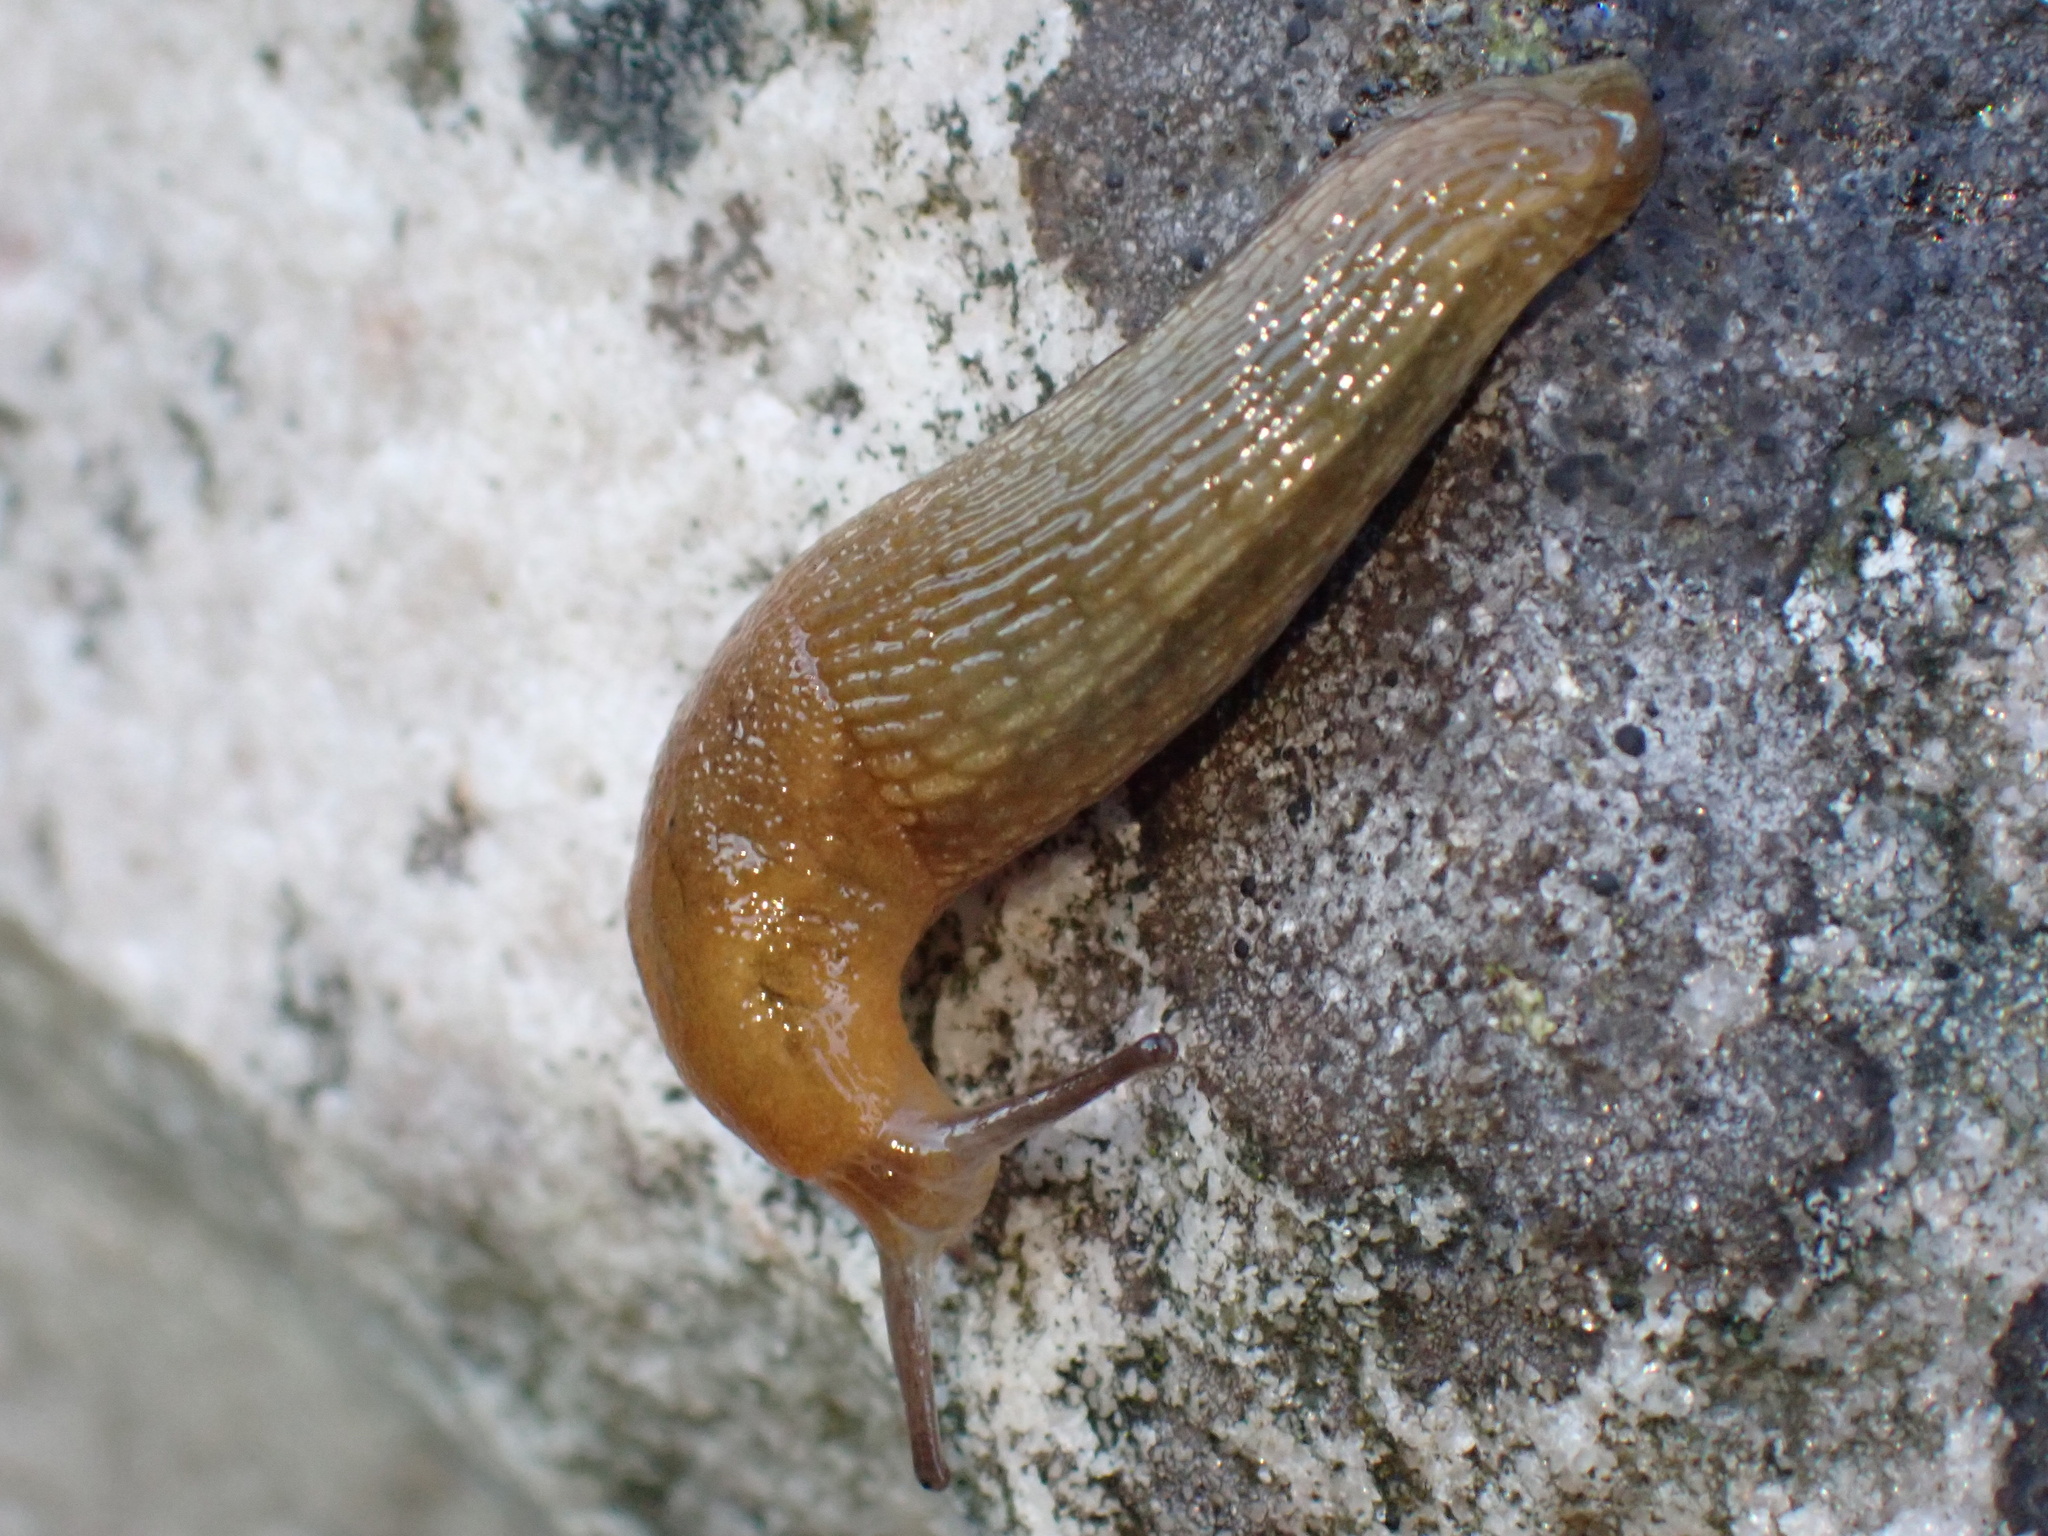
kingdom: Animalia
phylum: Mollusca
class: Gastropoda
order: Stylommatophora
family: Arionidae
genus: Arion
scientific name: Arion subfuscus
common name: Dusky arion
